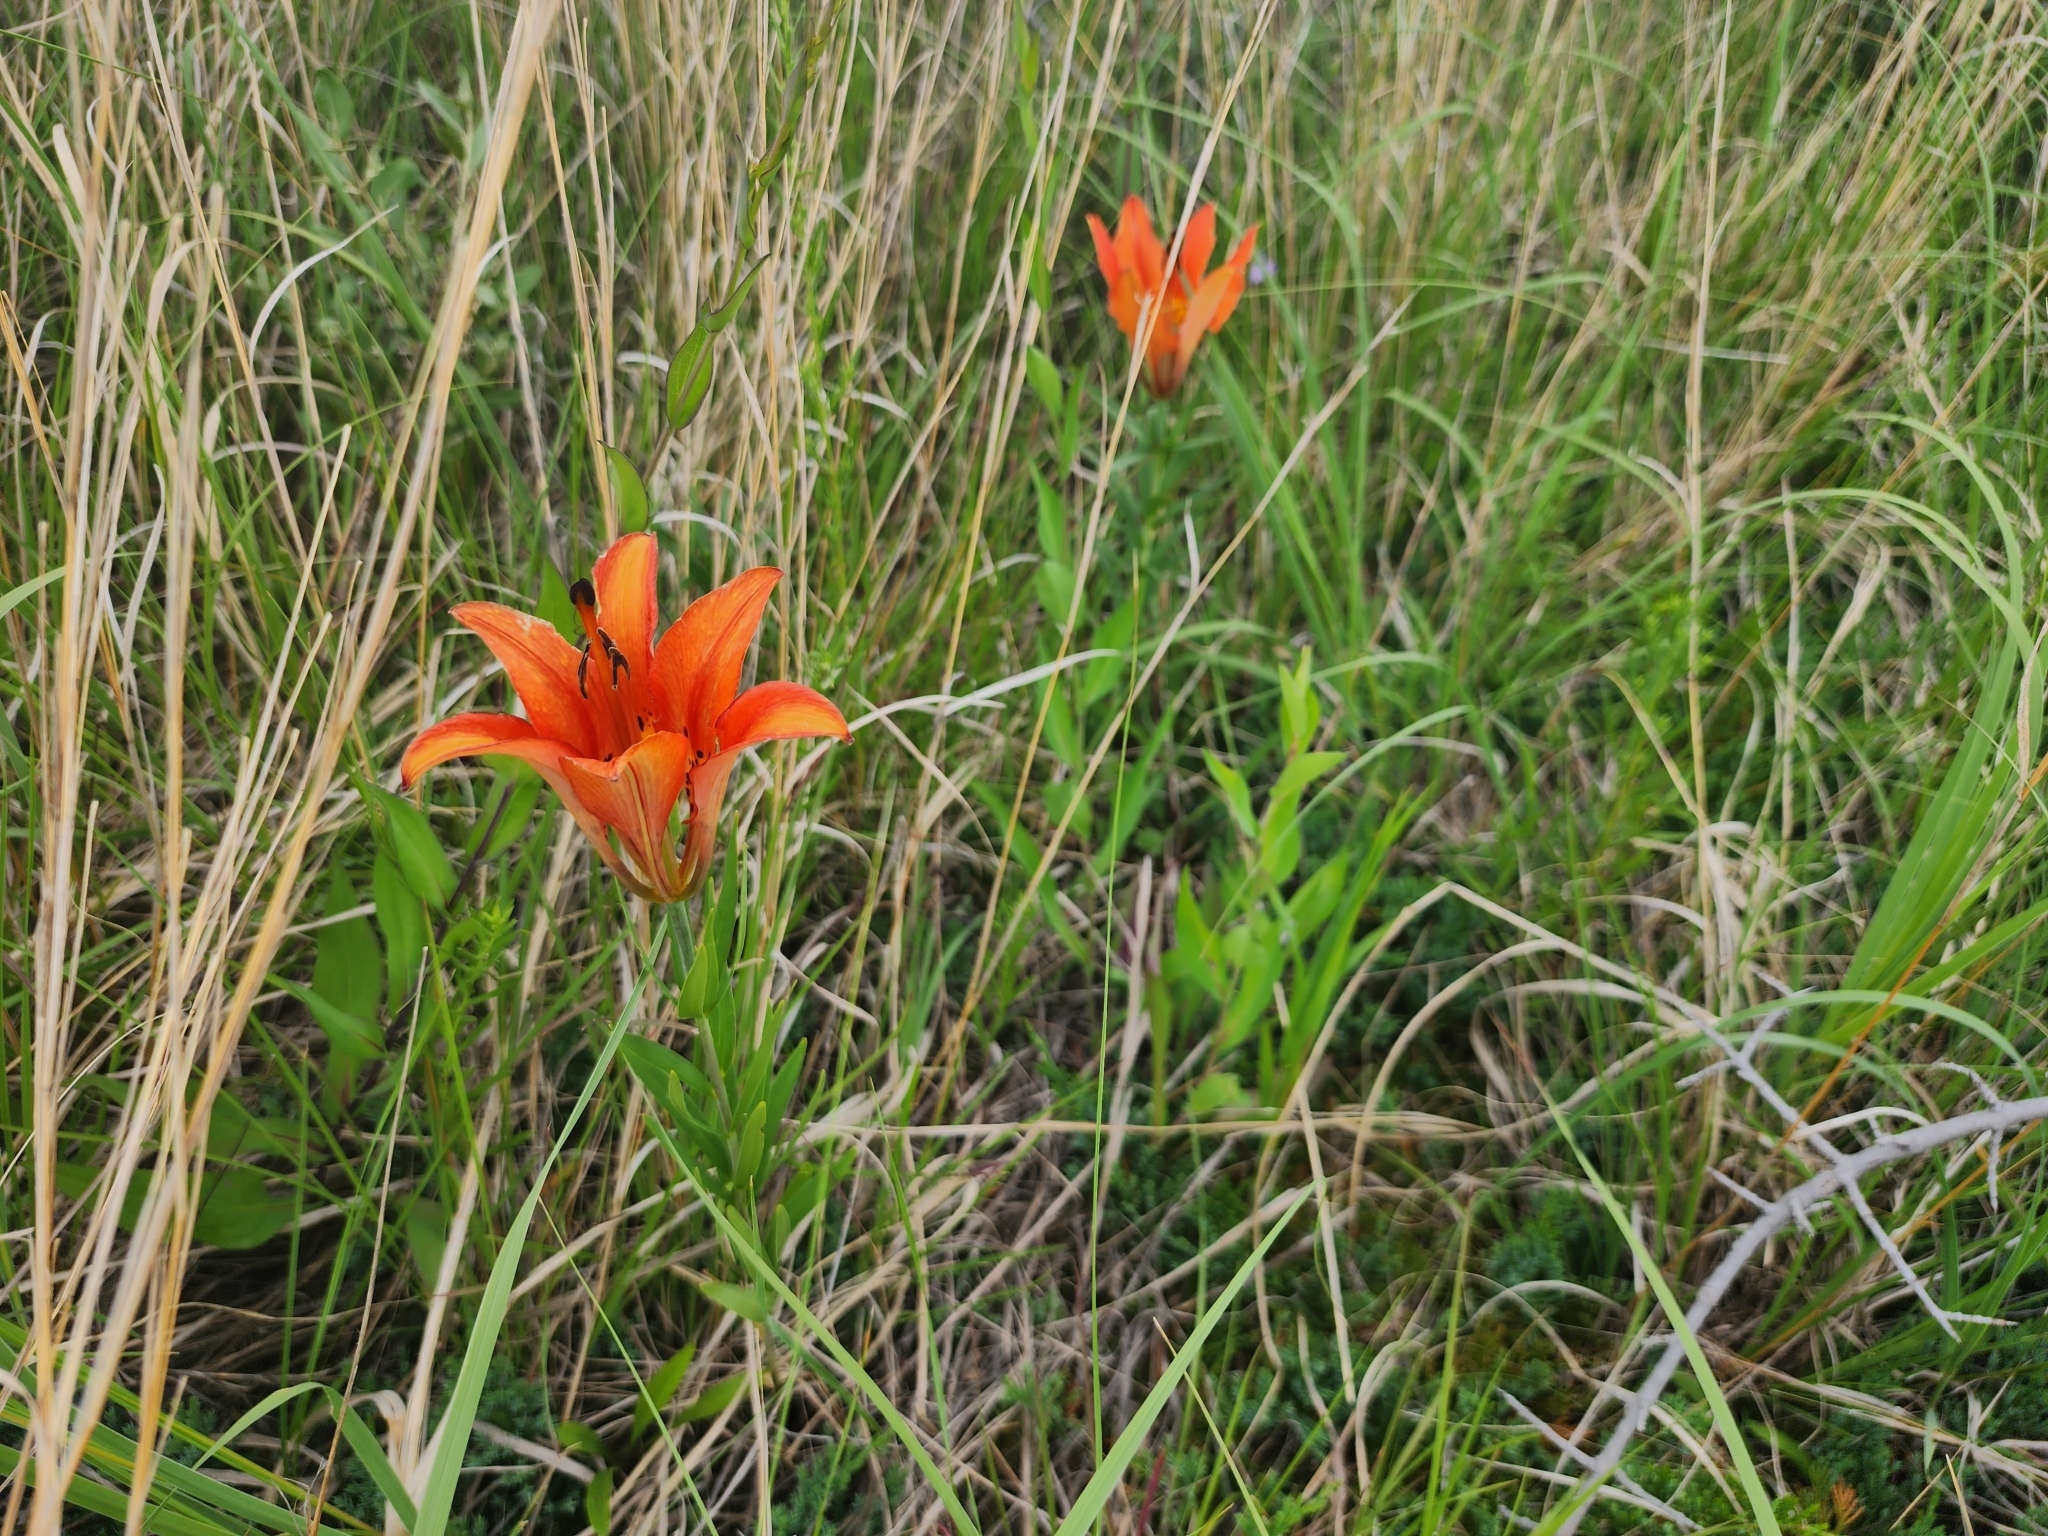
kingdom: Plantae
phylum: Tracheophyta
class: Liliopsida
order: Liliales
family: Liliaceae
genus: Lilium
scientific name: Lilium philadelphicum
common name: Red lily
